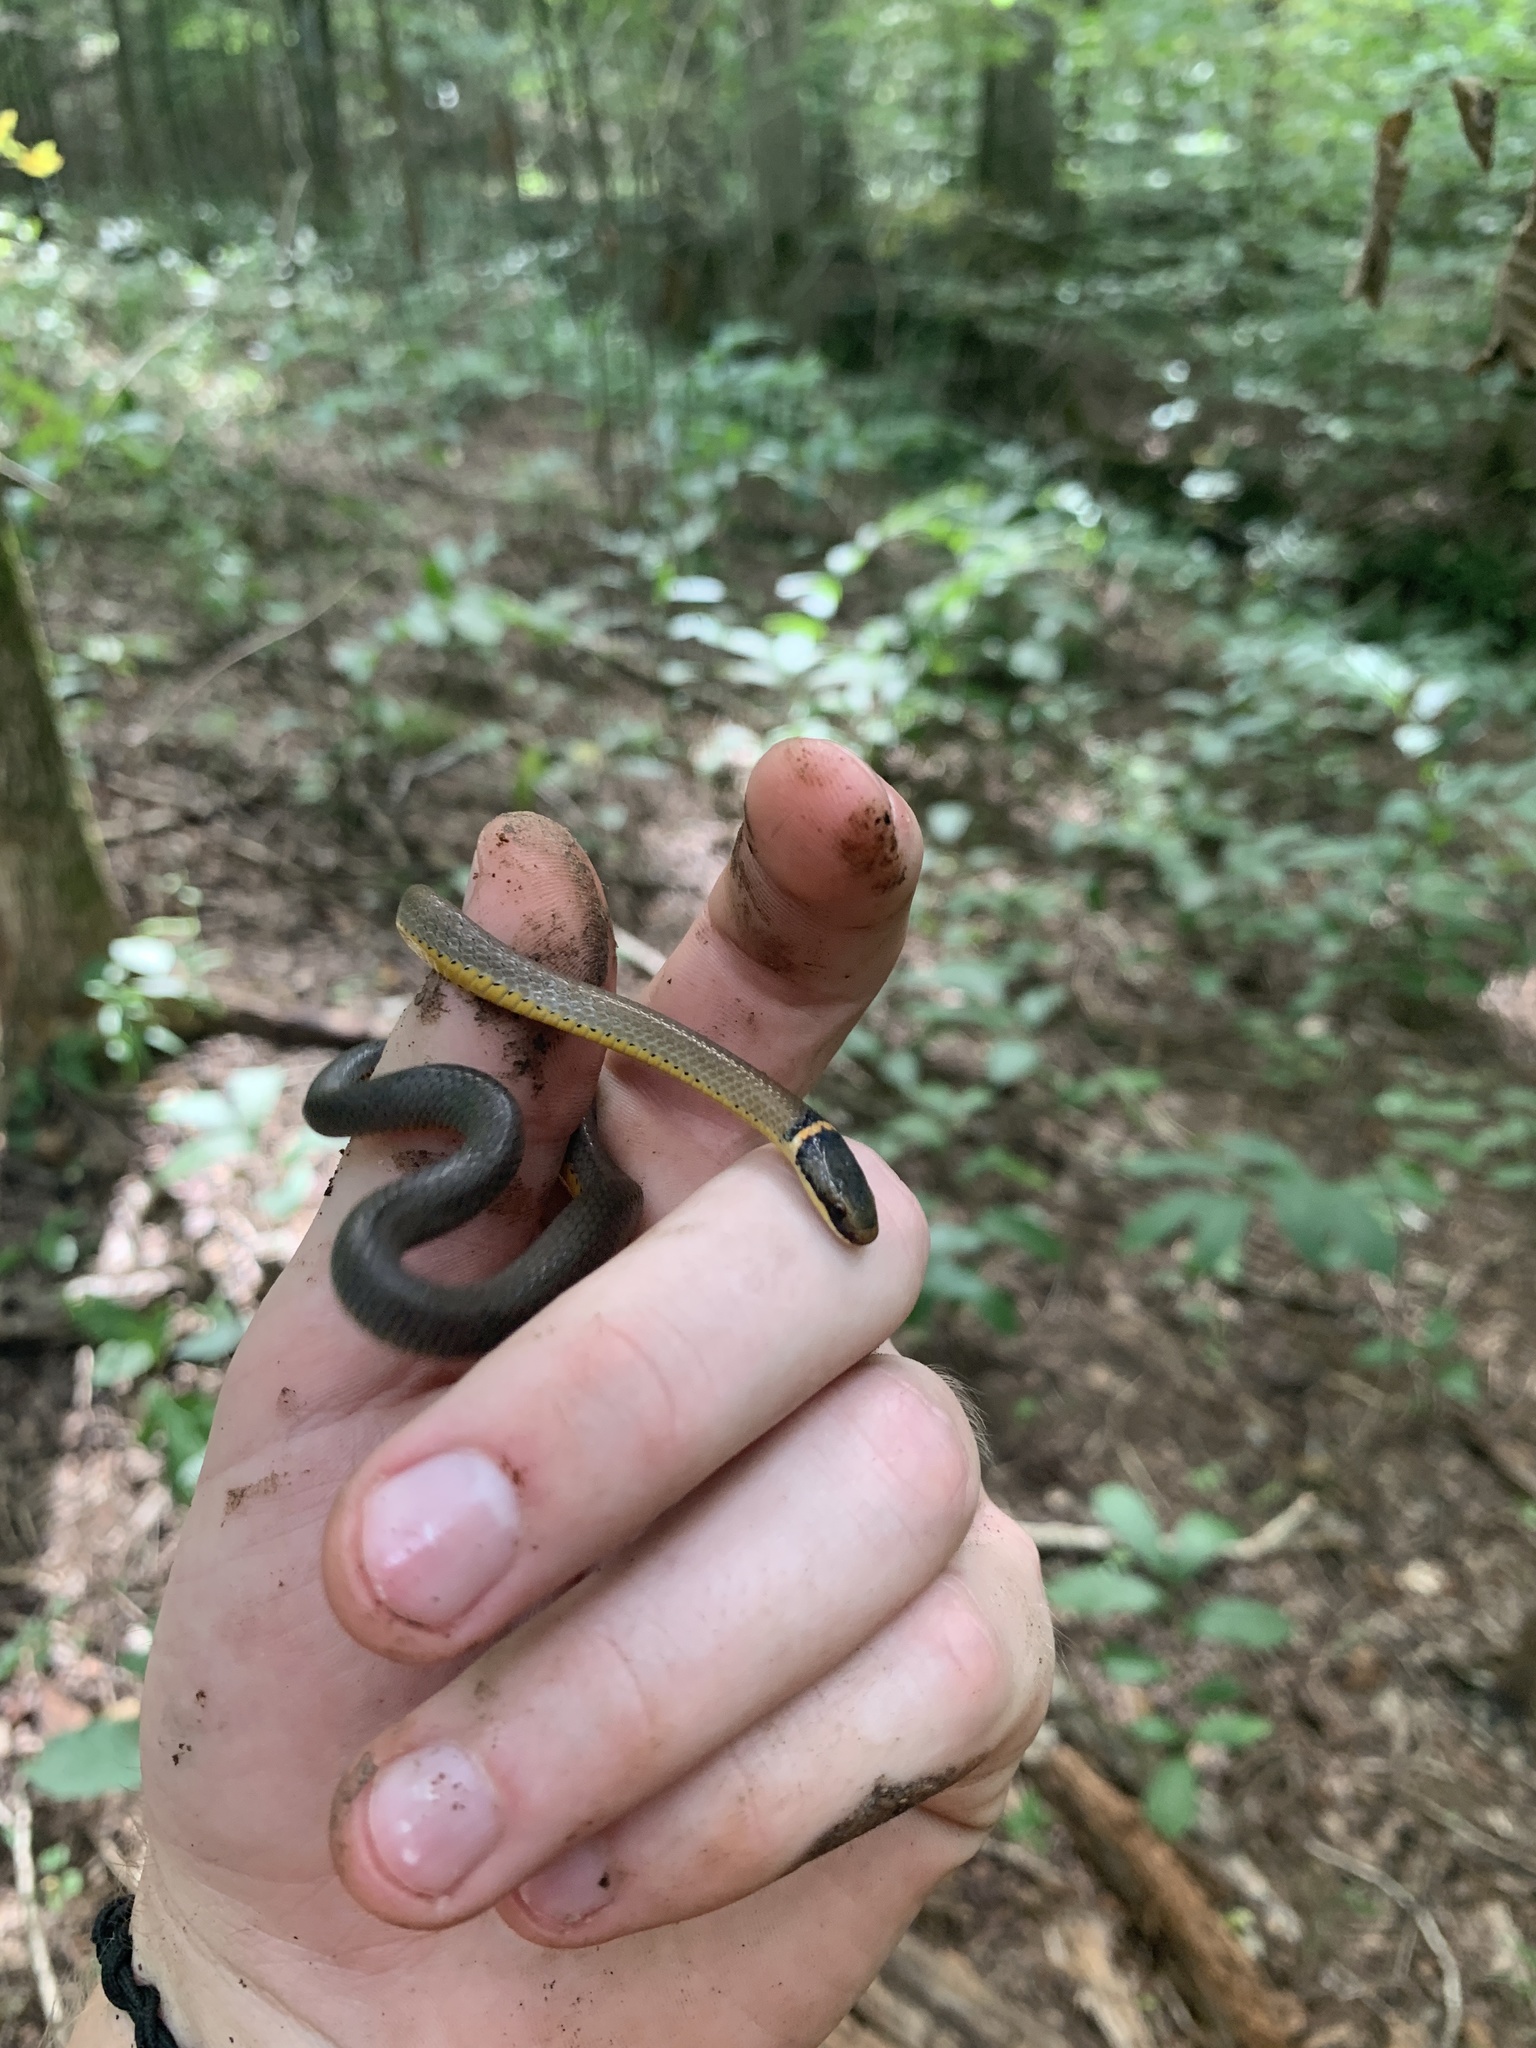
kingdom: Animalia
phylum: Chordata
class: Squamata
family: Colubridae
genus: Diadophis
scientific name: Diadophis punctatus
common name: Ringneck snake
